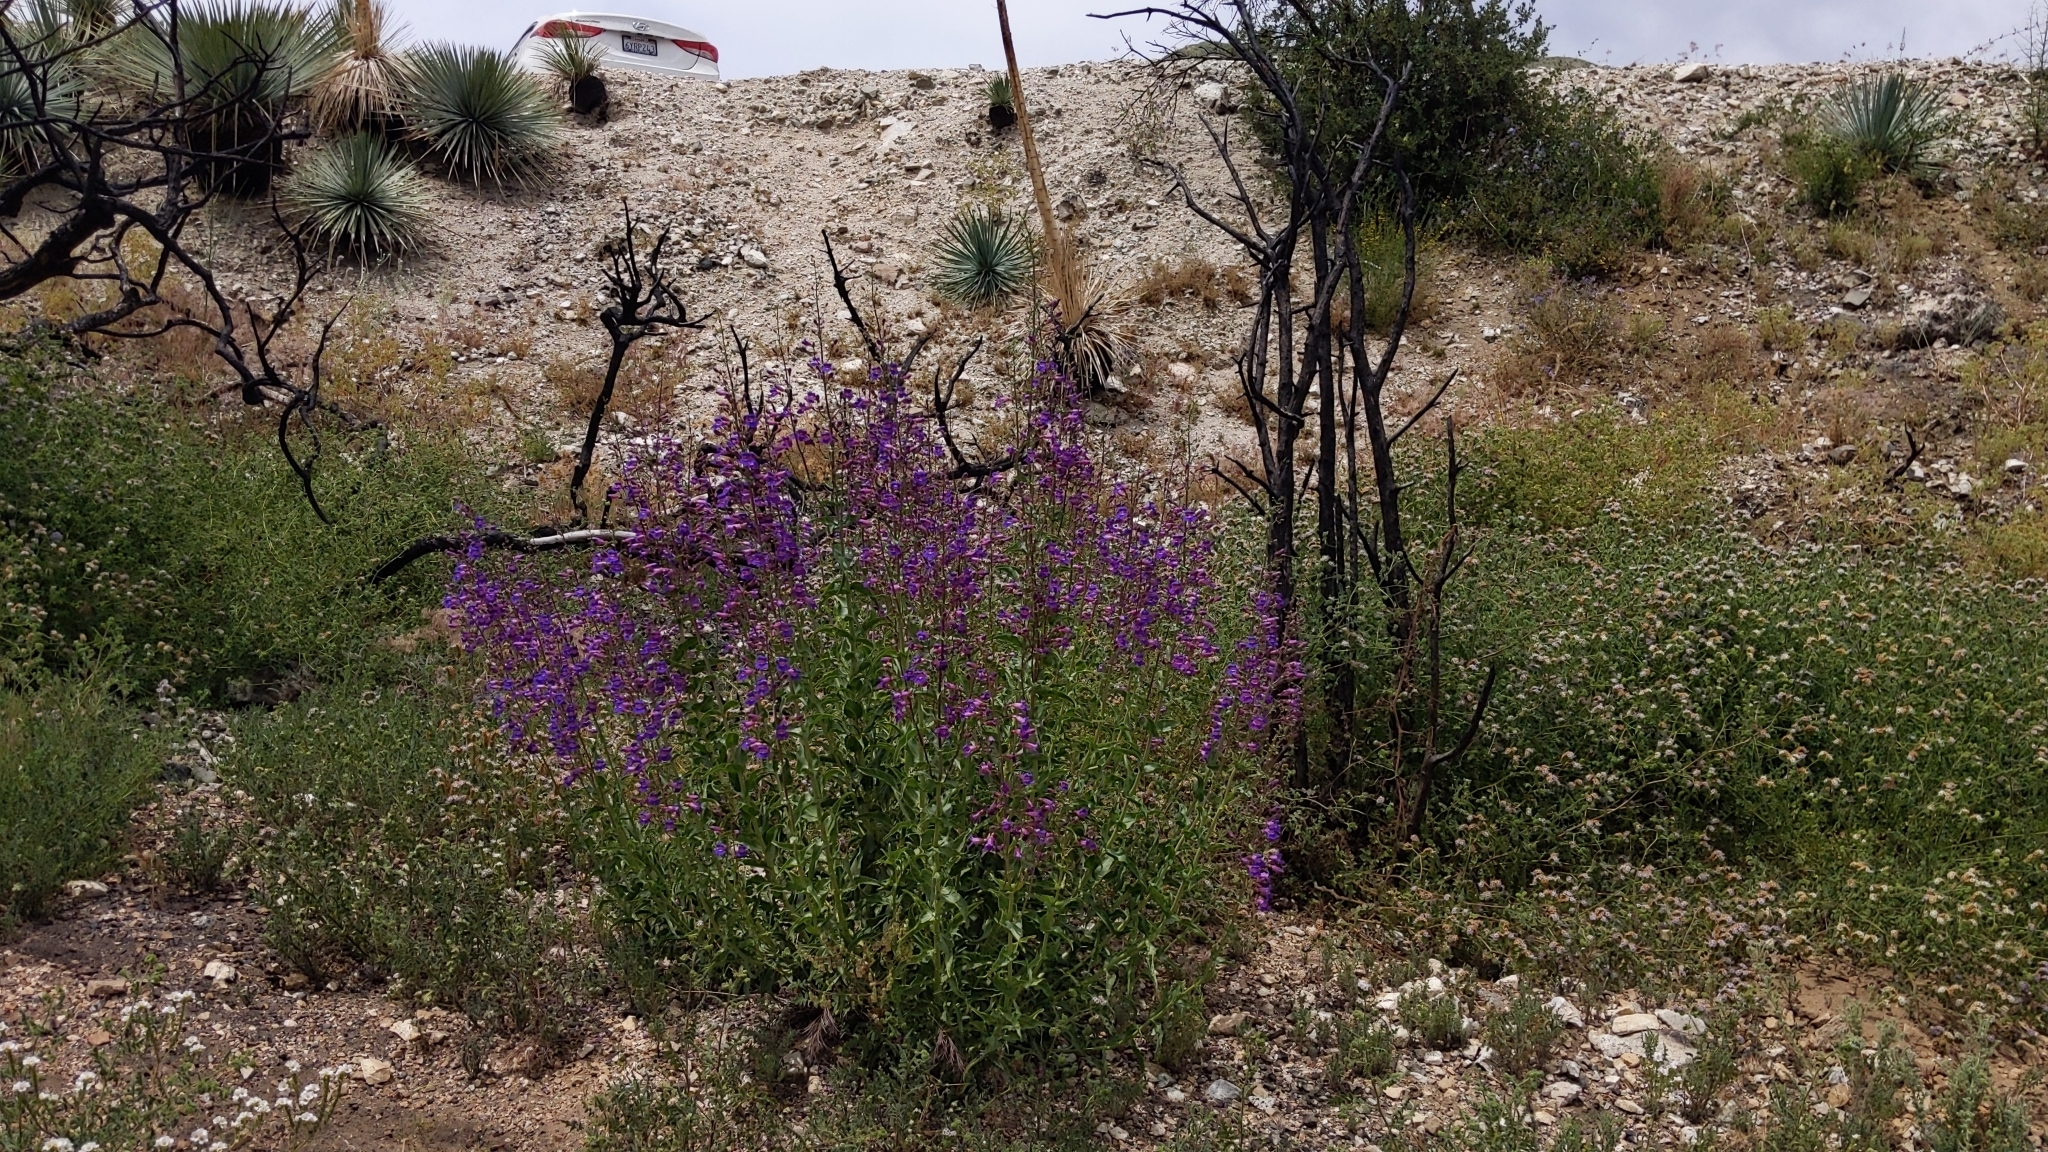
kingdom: Plantae
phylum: Tracheophyta
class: Magnoliopsida
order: Lamiales
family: Plantaginaceae
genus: Penstemon
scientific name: Penstemon spectabilis
